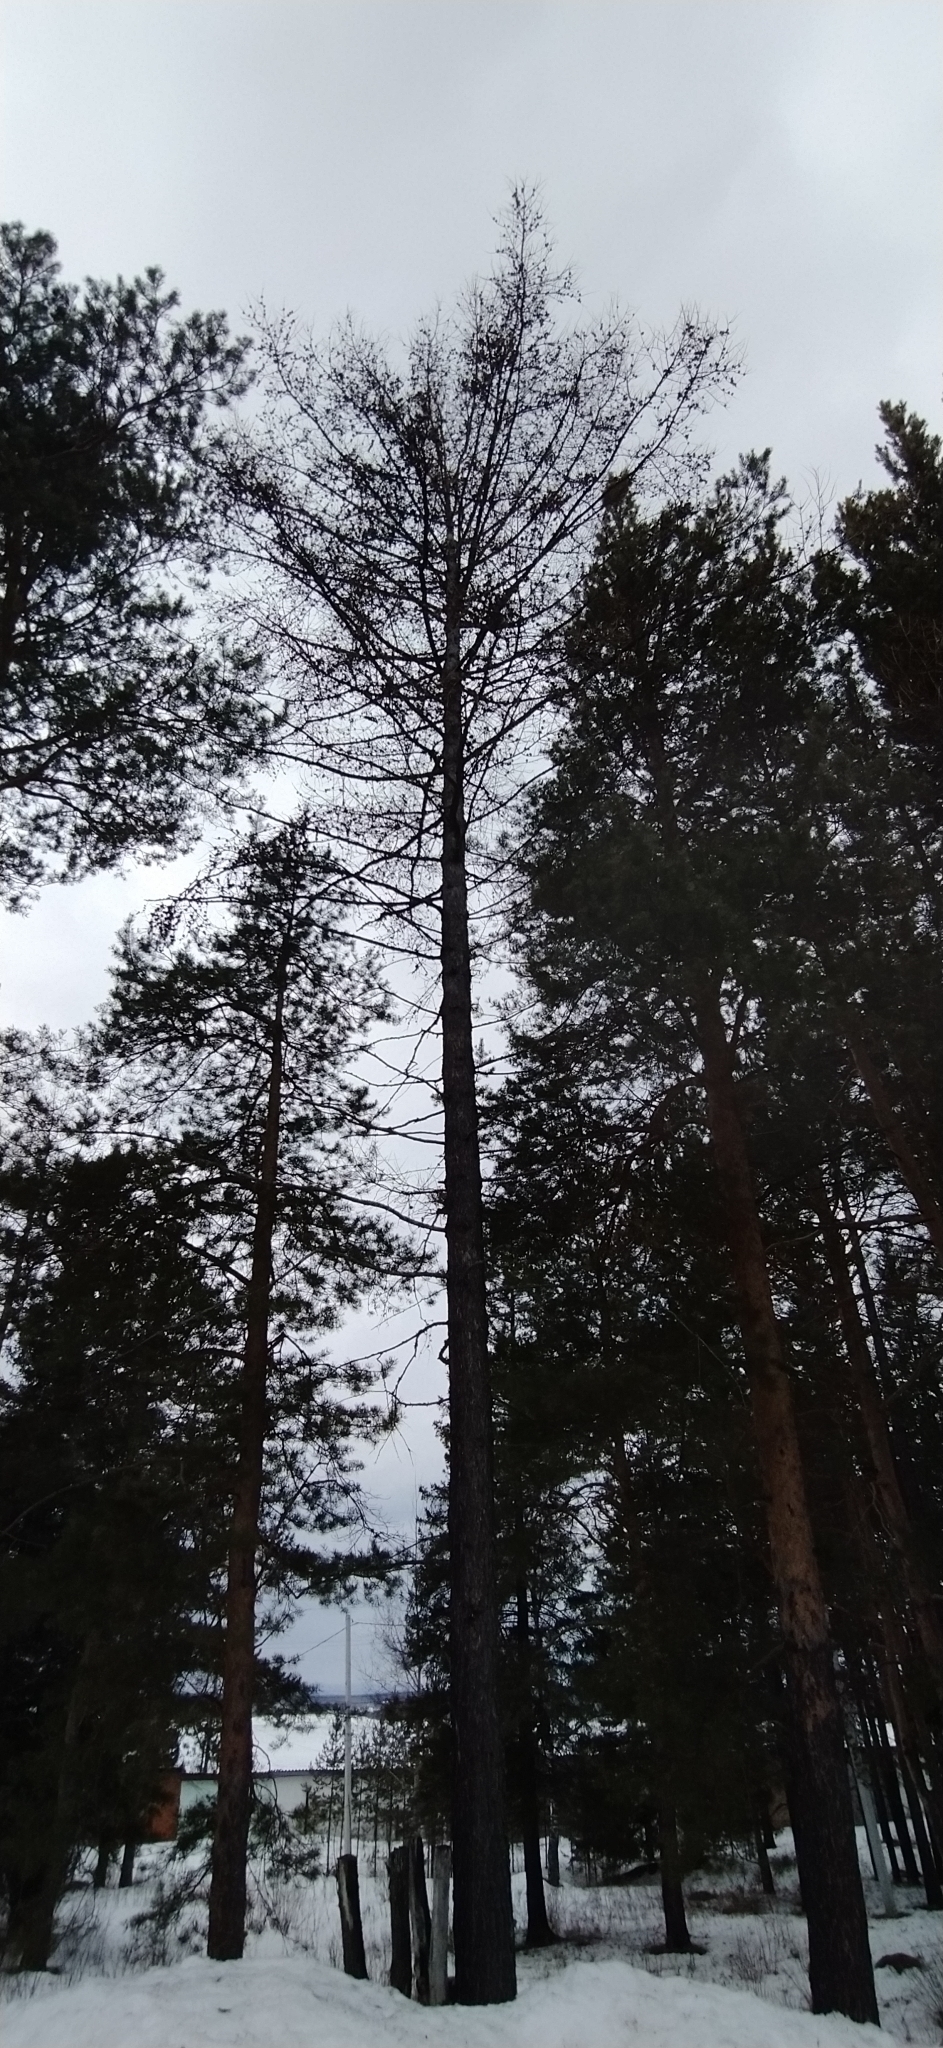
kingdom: Plantae
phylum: Tracheophyta
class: Pinopsida
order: Pinales
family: Pinaceae
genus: Larix
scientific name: Larix sibirica
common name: Siberian larch
